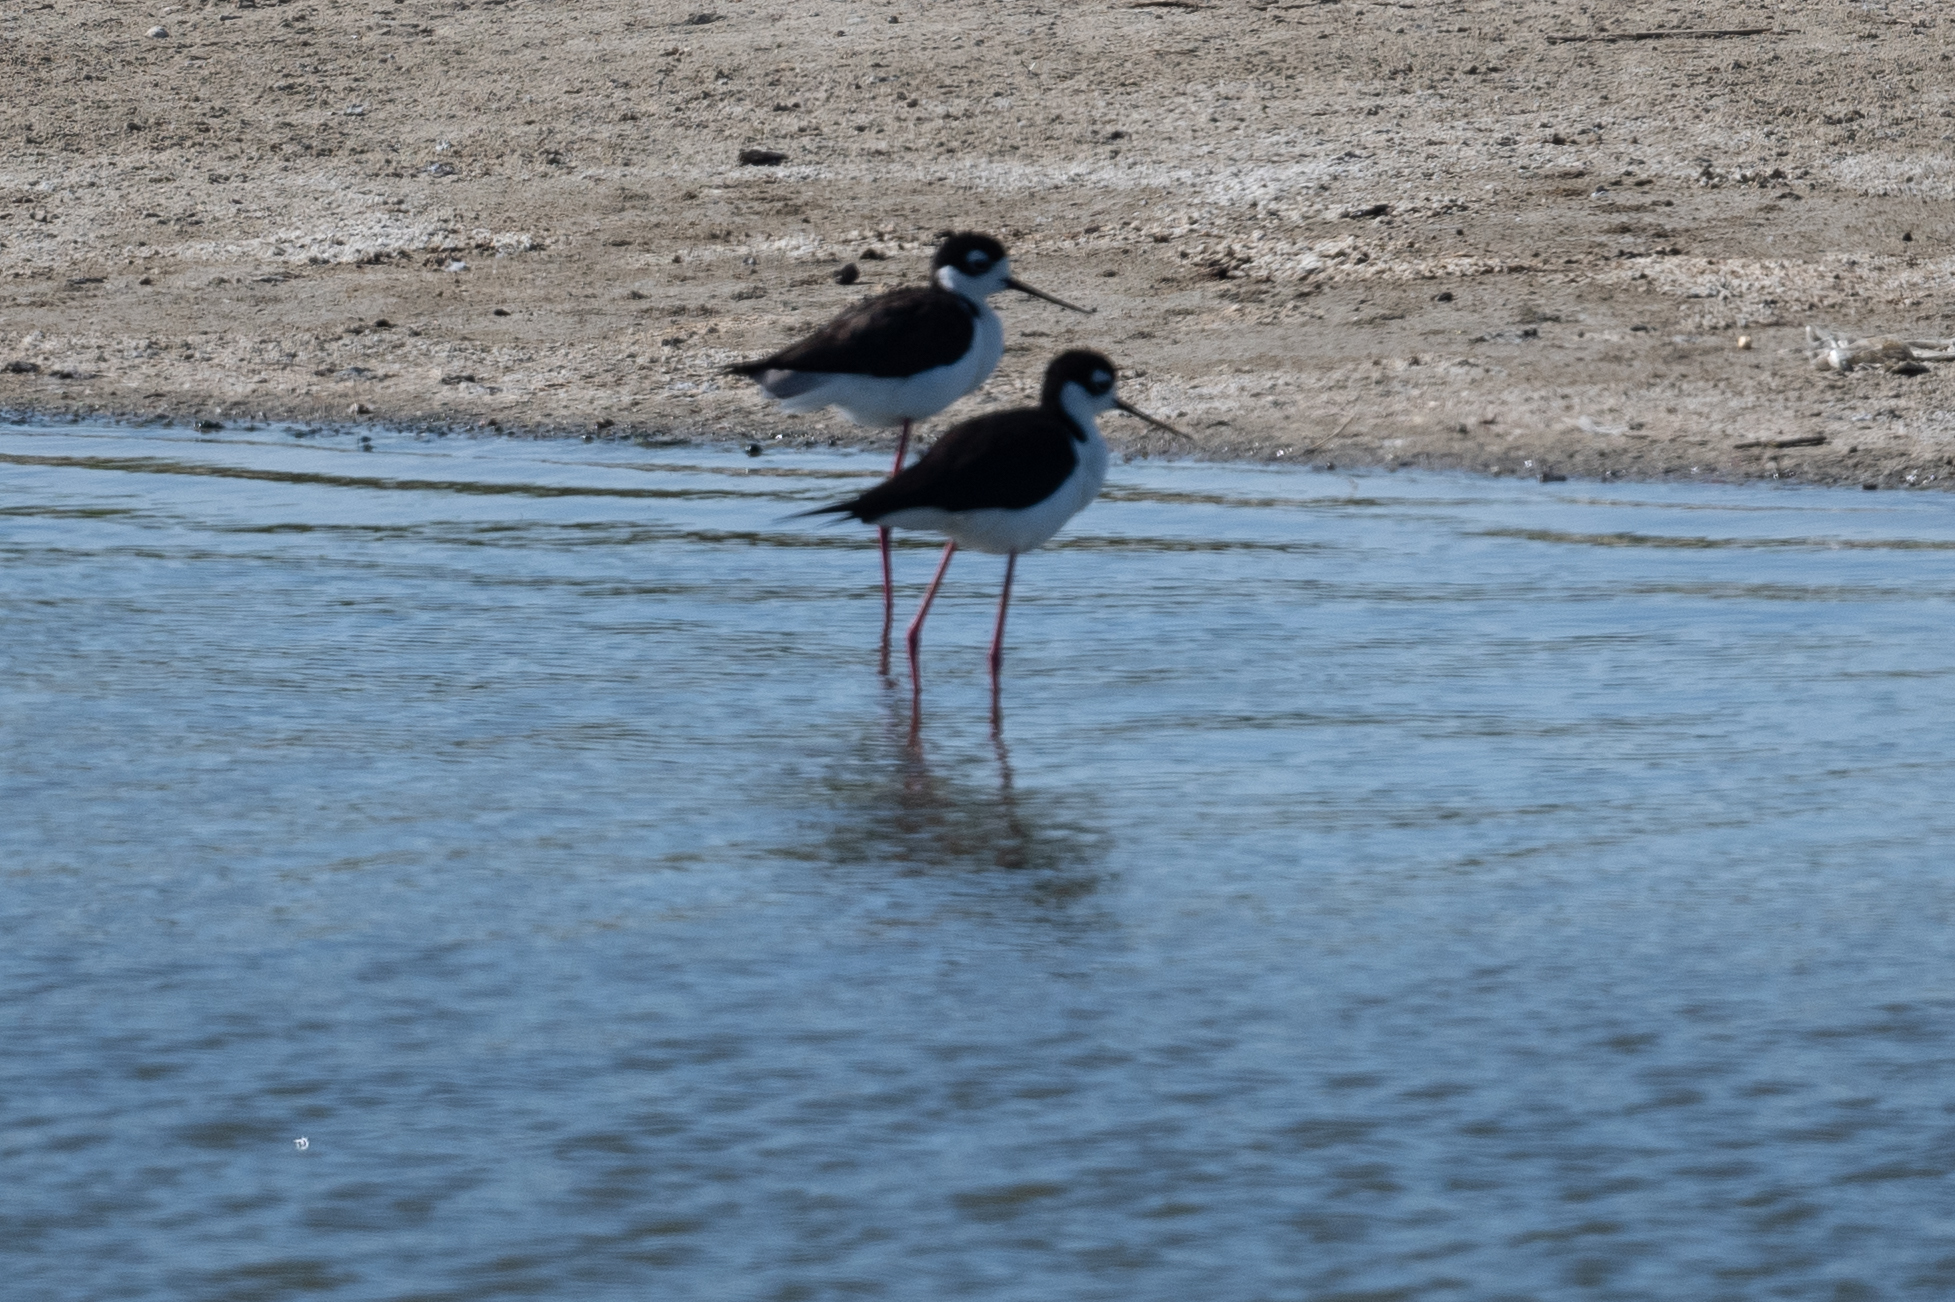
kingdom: Animalia
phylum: Chordata
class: Aves
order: Charadriiformes
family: Recurvirostridae
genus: Himantopus
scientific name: Himantopus mexicanus
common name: Black-necked stilt
